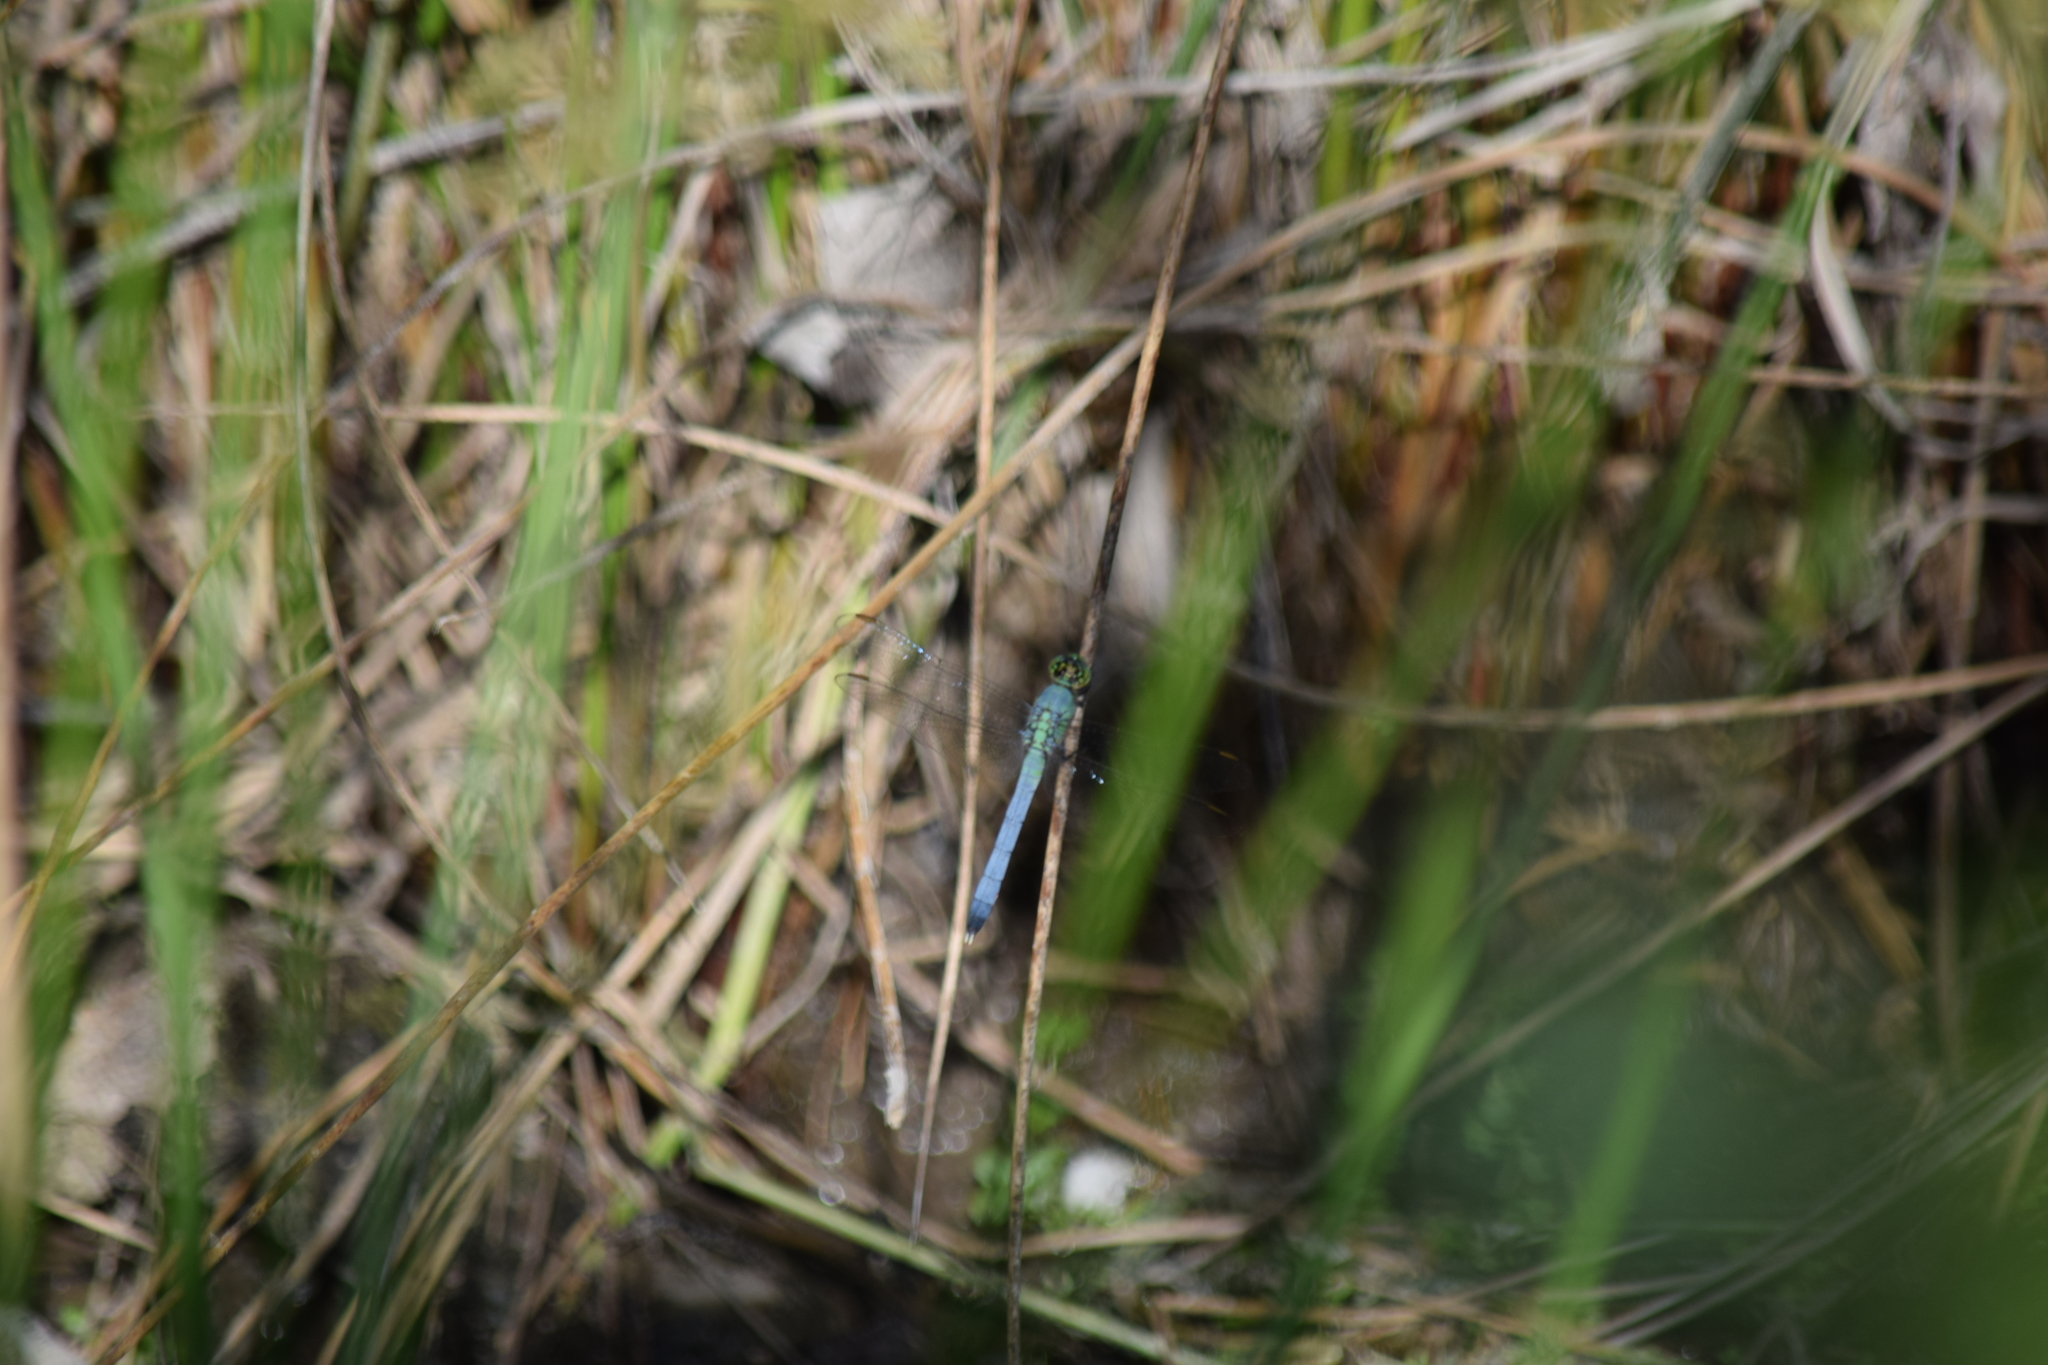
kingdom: Animalia
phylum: Arthropoda
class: Insecta
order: Odonata
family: Libellulidae
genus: Erythemis
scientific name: Erythemis simplicicollis
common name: Eastern pondhawk
